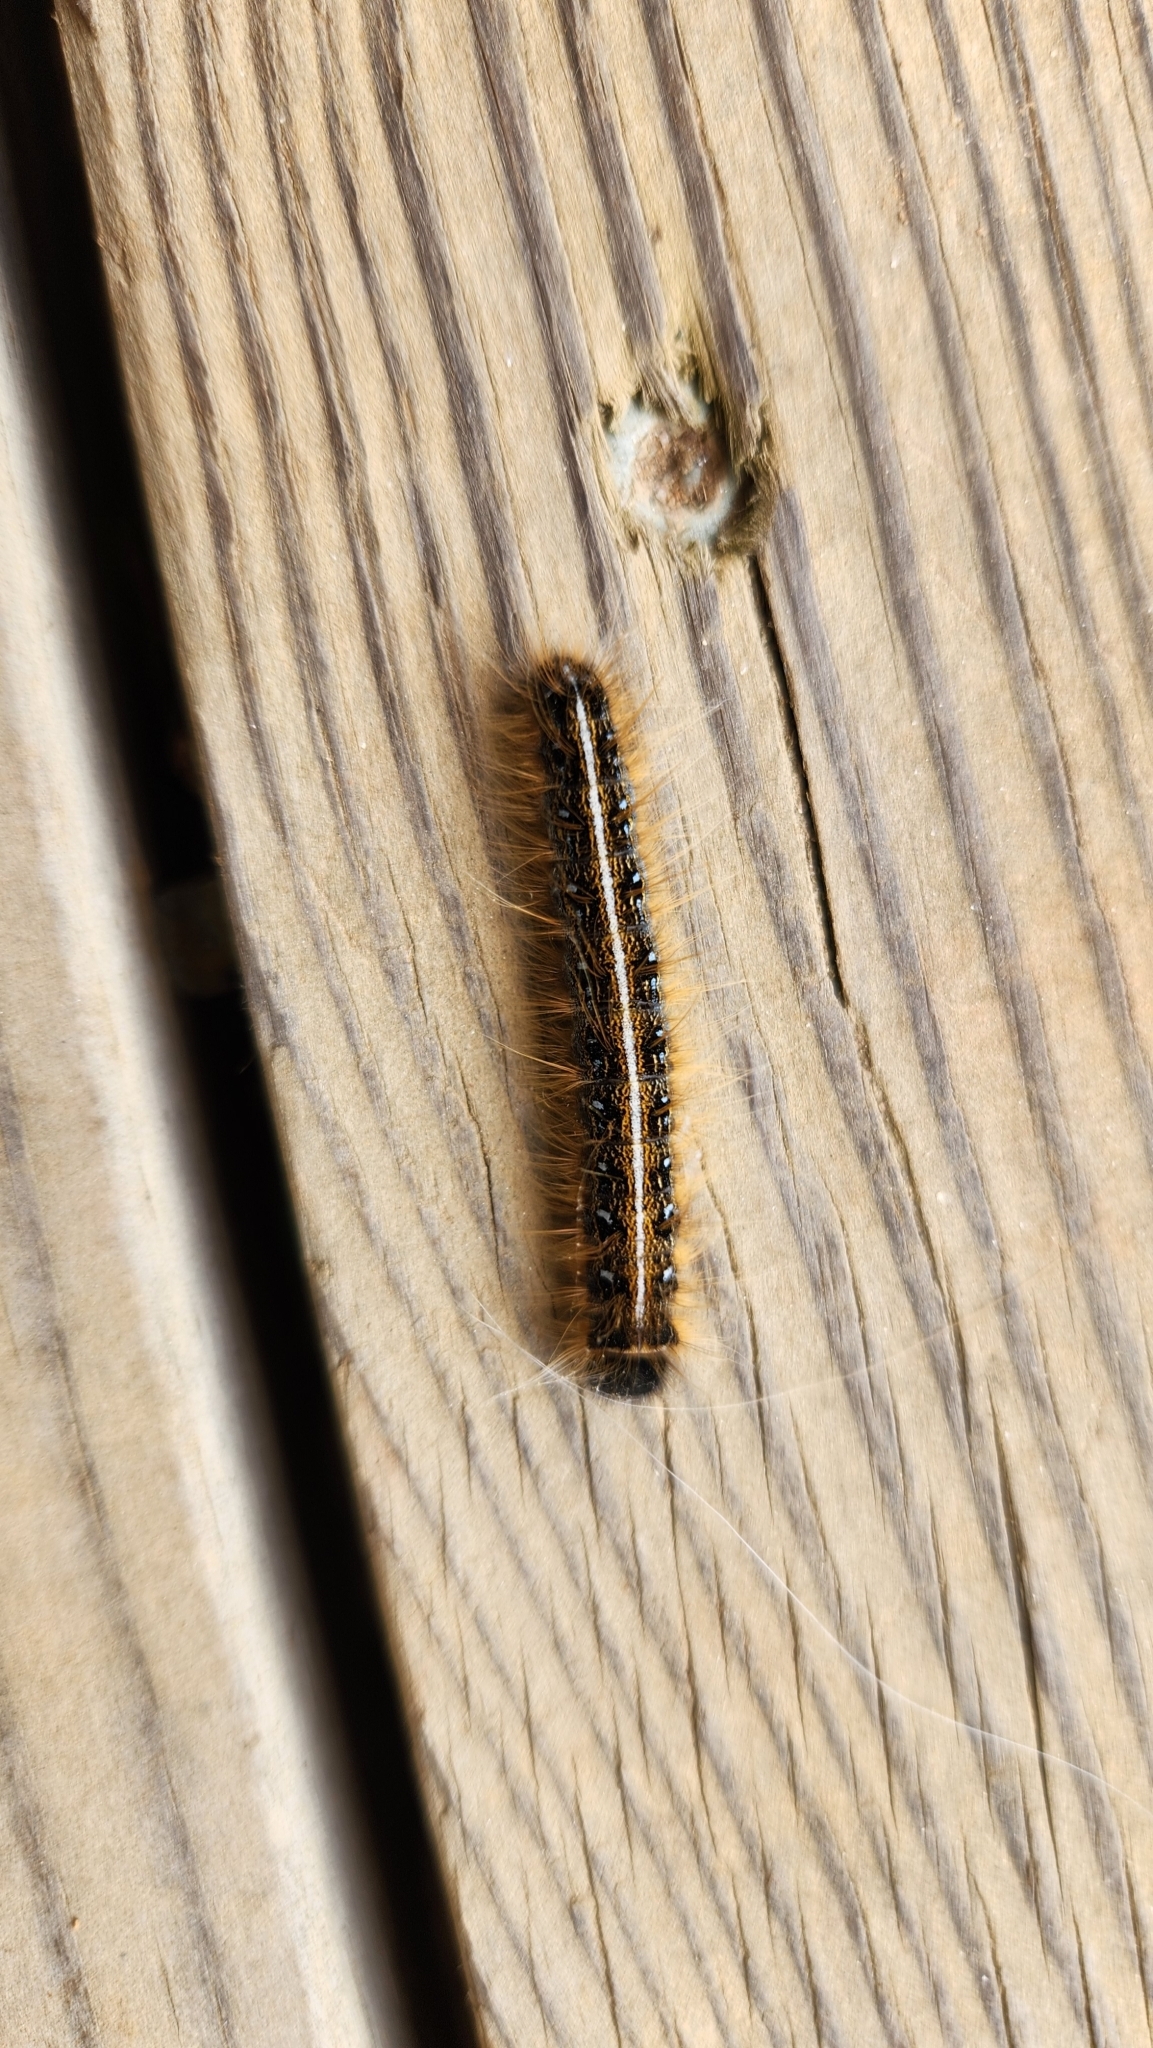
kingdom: Animalia
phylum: Arthropoda
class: Insecta
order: Lepidoptera
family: Lasiocampidae
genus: Malacosoma
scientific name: Malacosoma americana
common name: Eastern tent caterpillar moth
